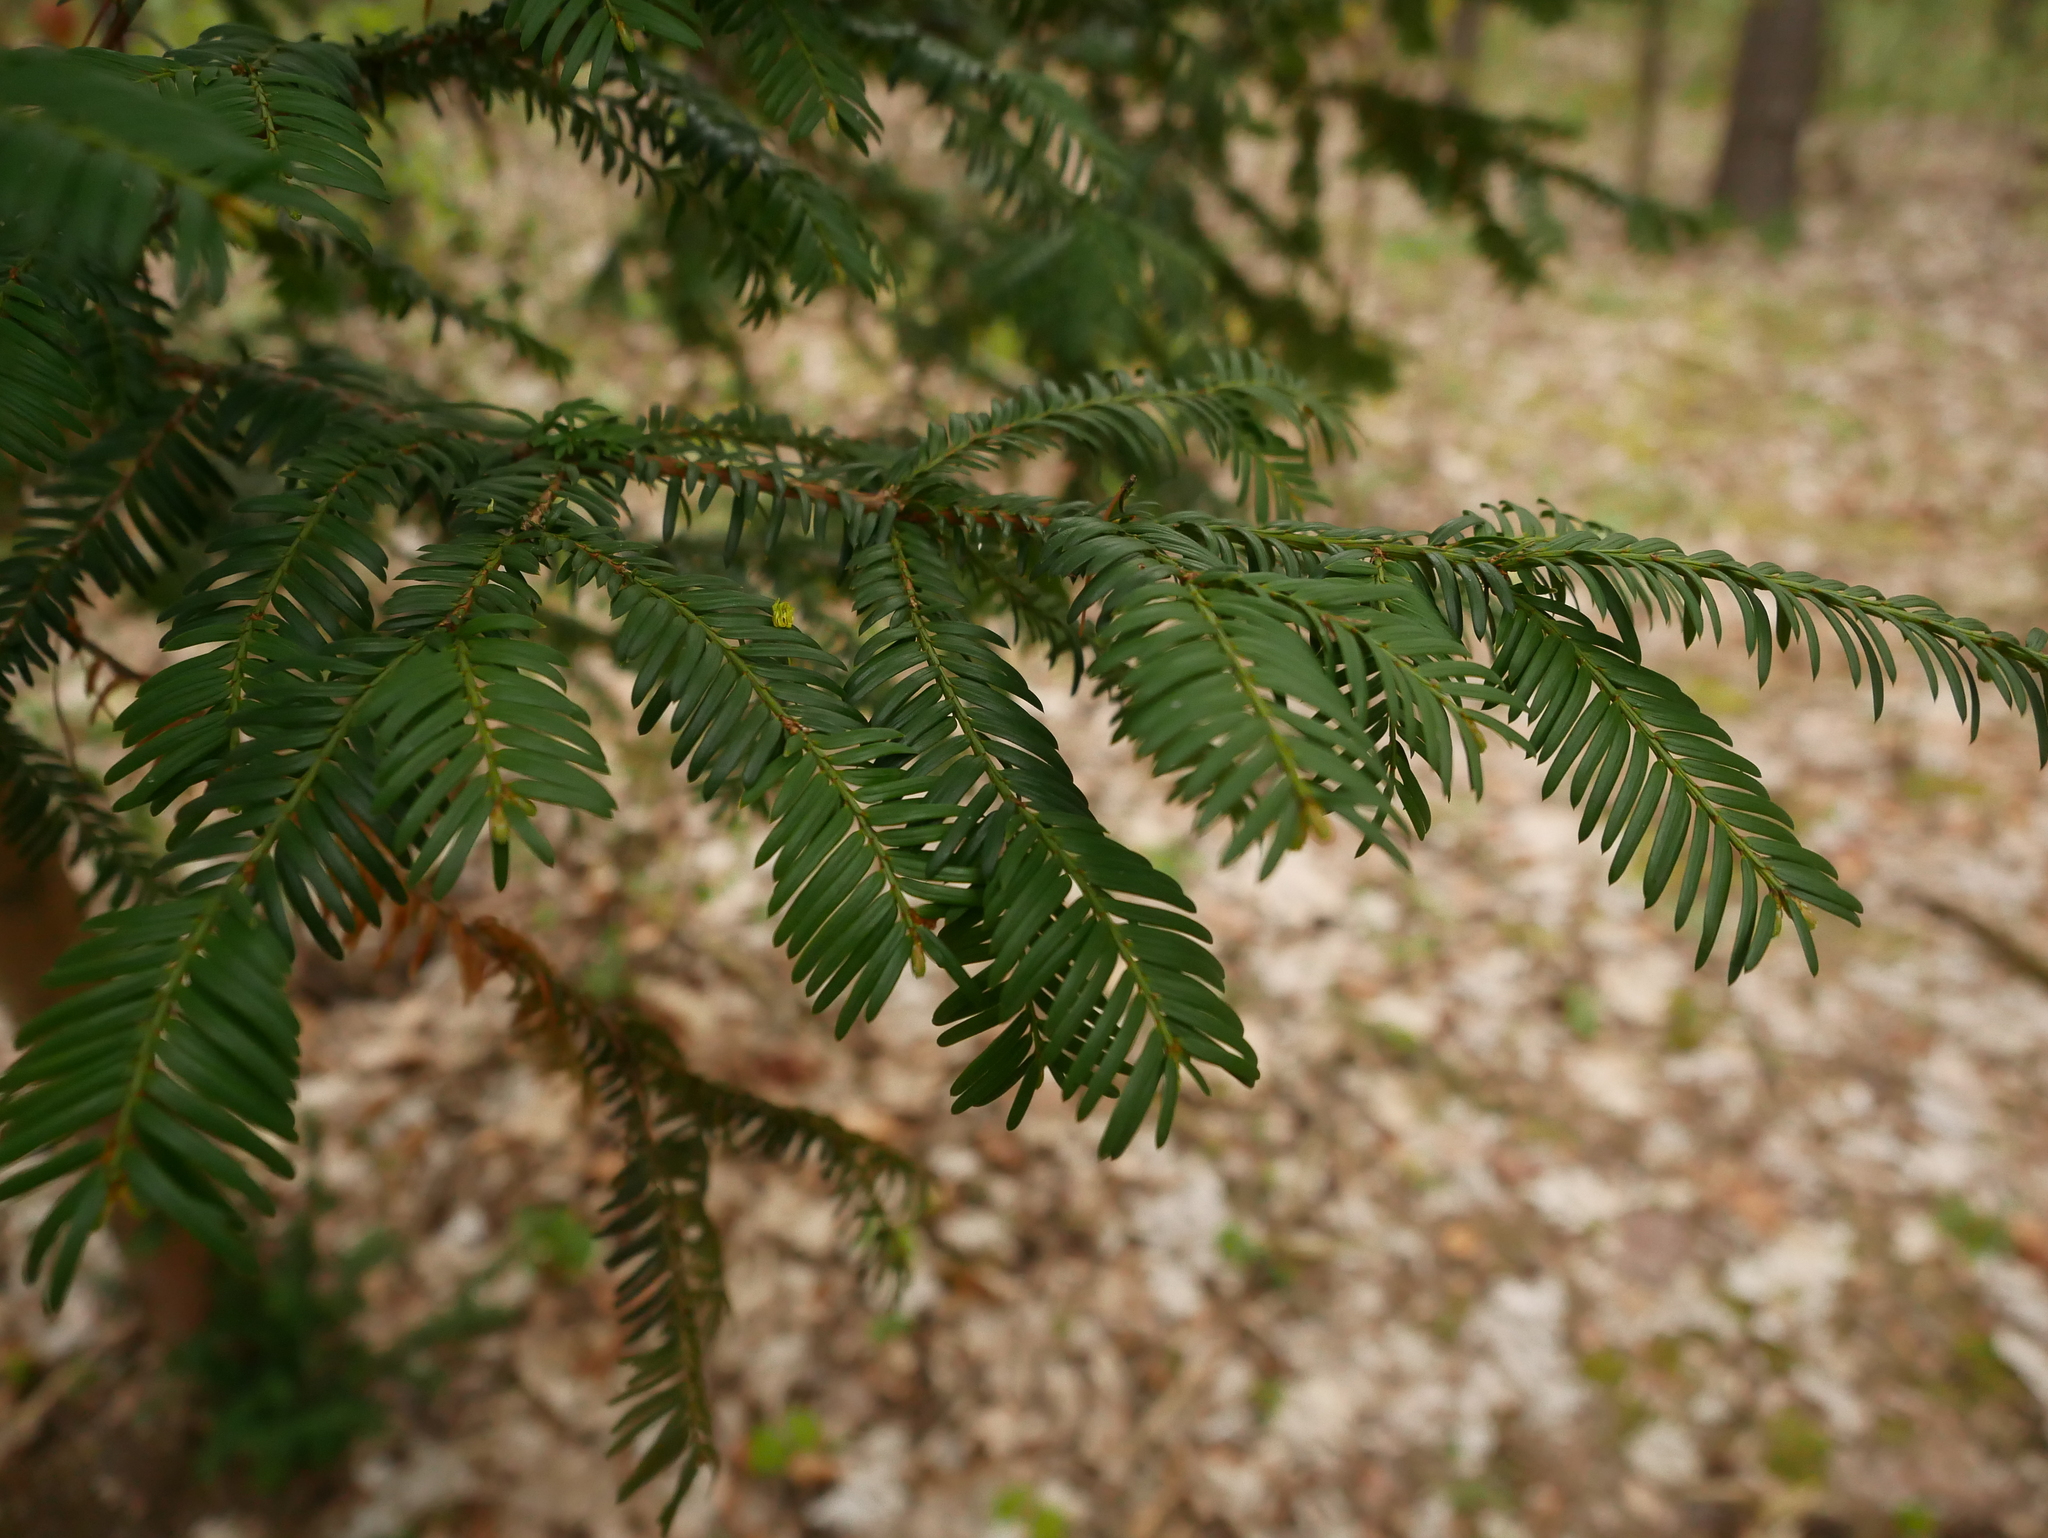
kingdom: Plantae
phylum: Tracheophyta
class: Pinopsida
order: Pinales
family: Taxaceae
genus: Taxus
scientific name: Taxus baccata
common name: Yew
